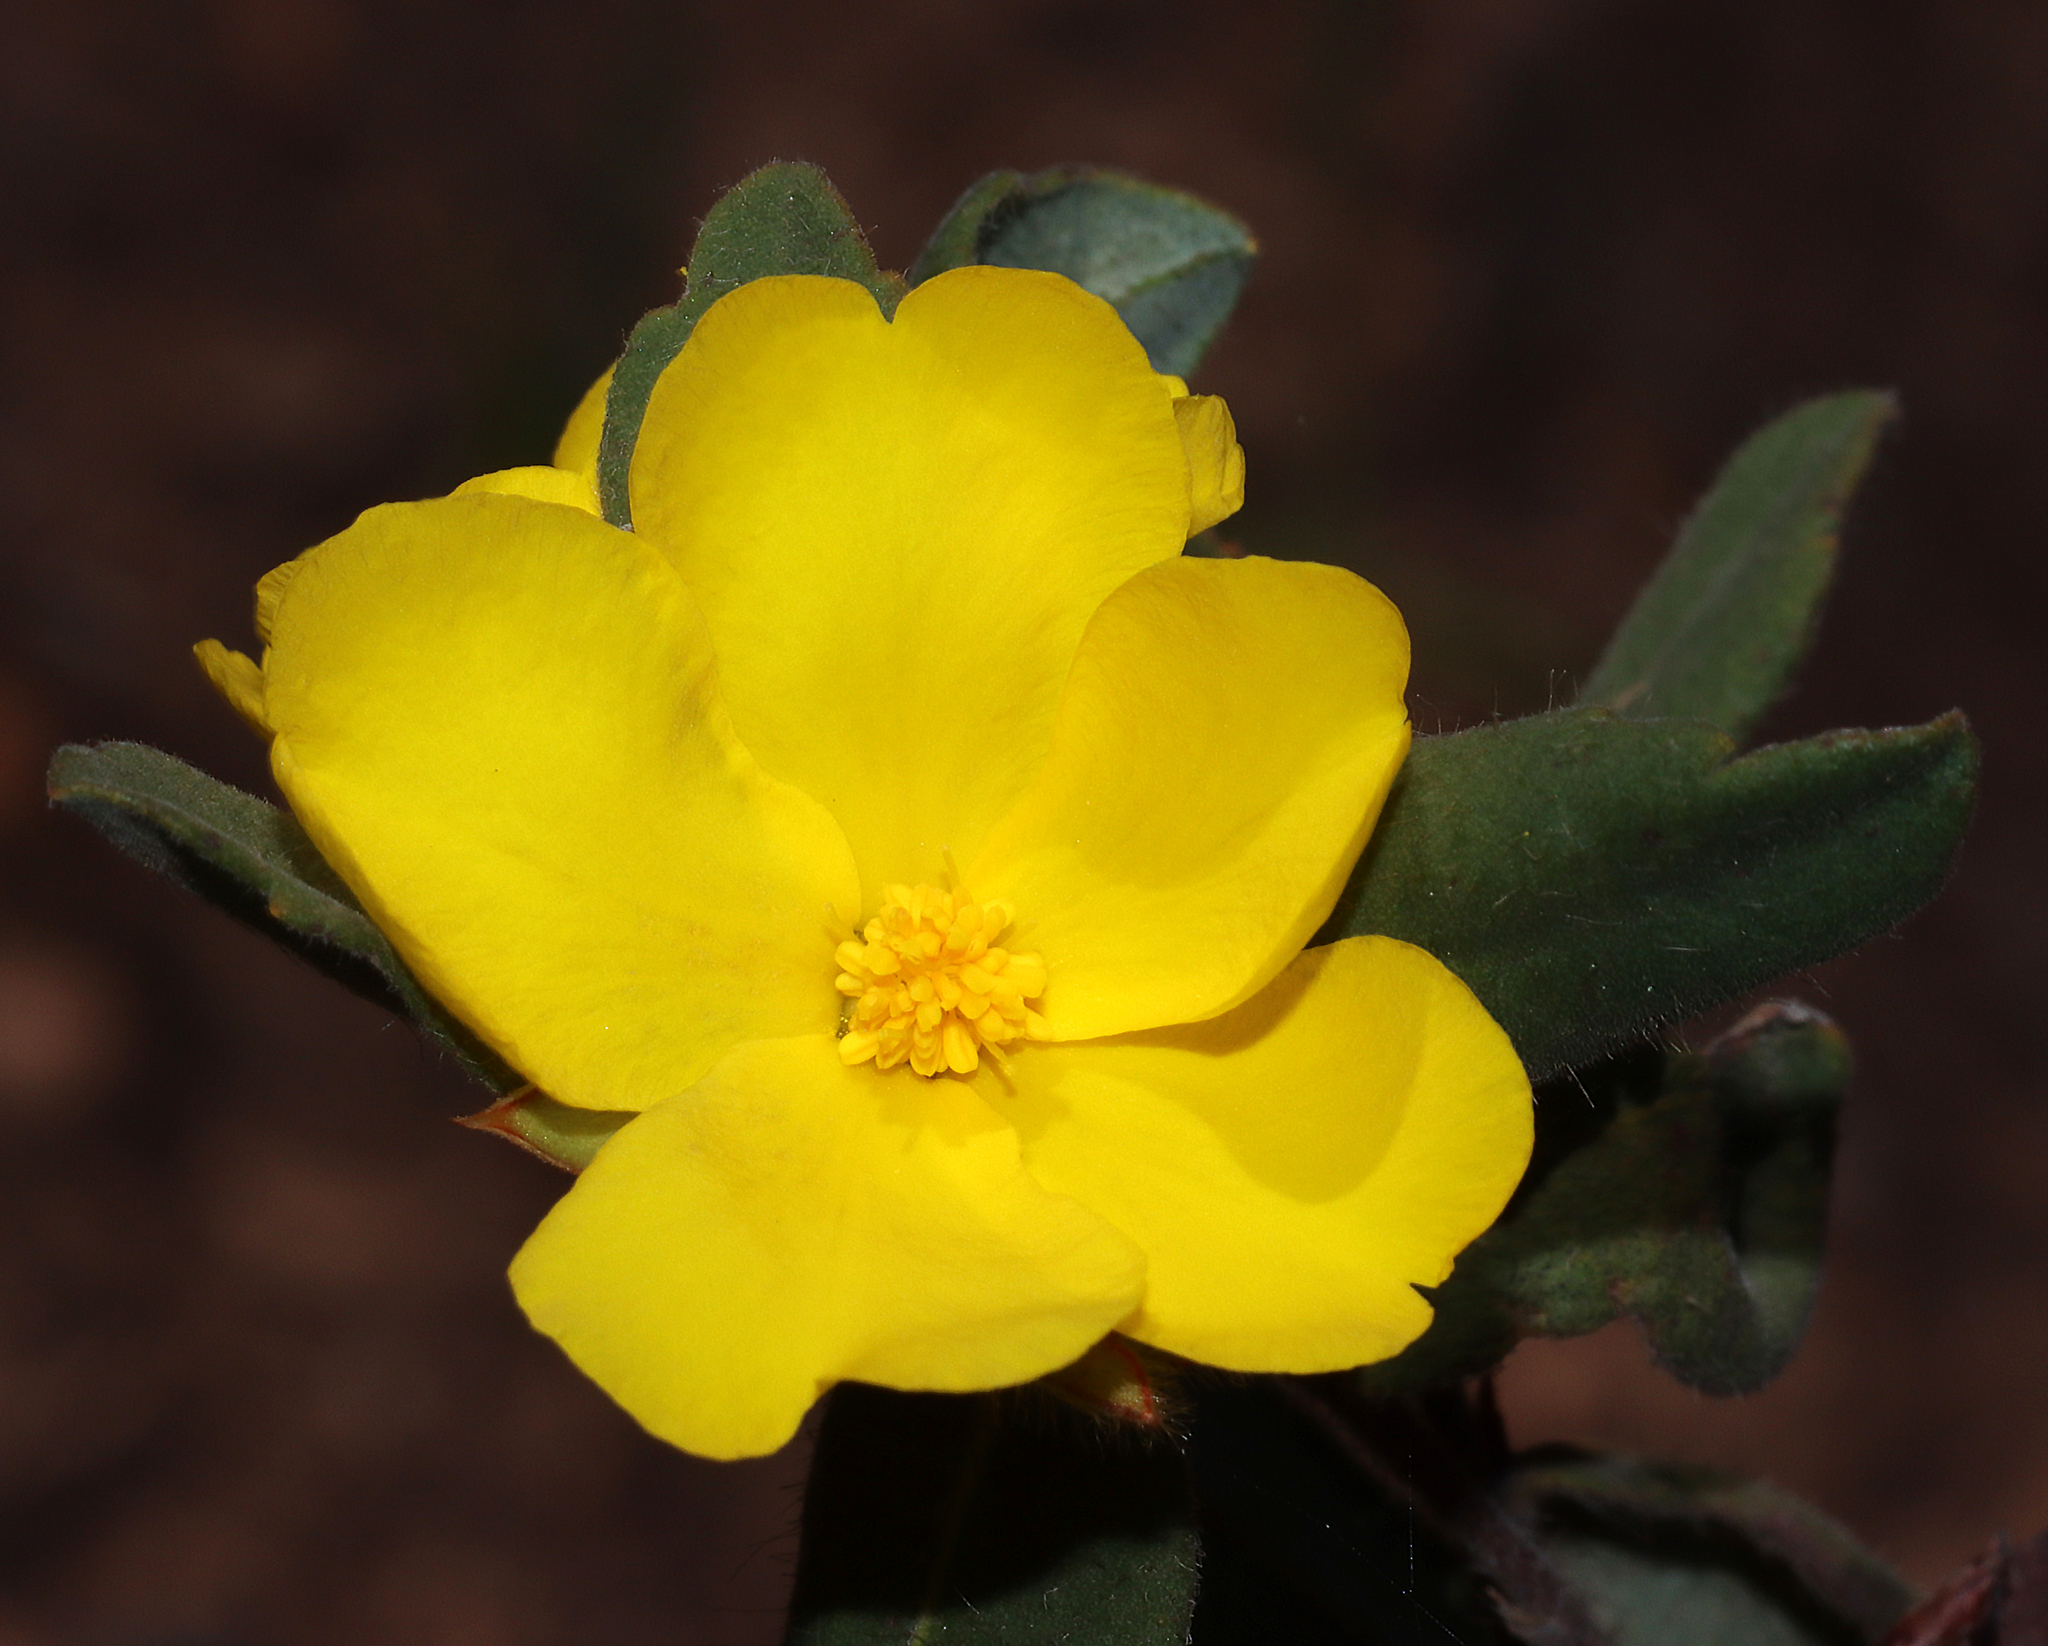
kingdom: Plantae
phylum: Tracheophyta
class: Magnoliopsida
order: Dilleniales
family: Dilleniaceae
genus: Hibbertia
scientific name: Hibbertia davisii
